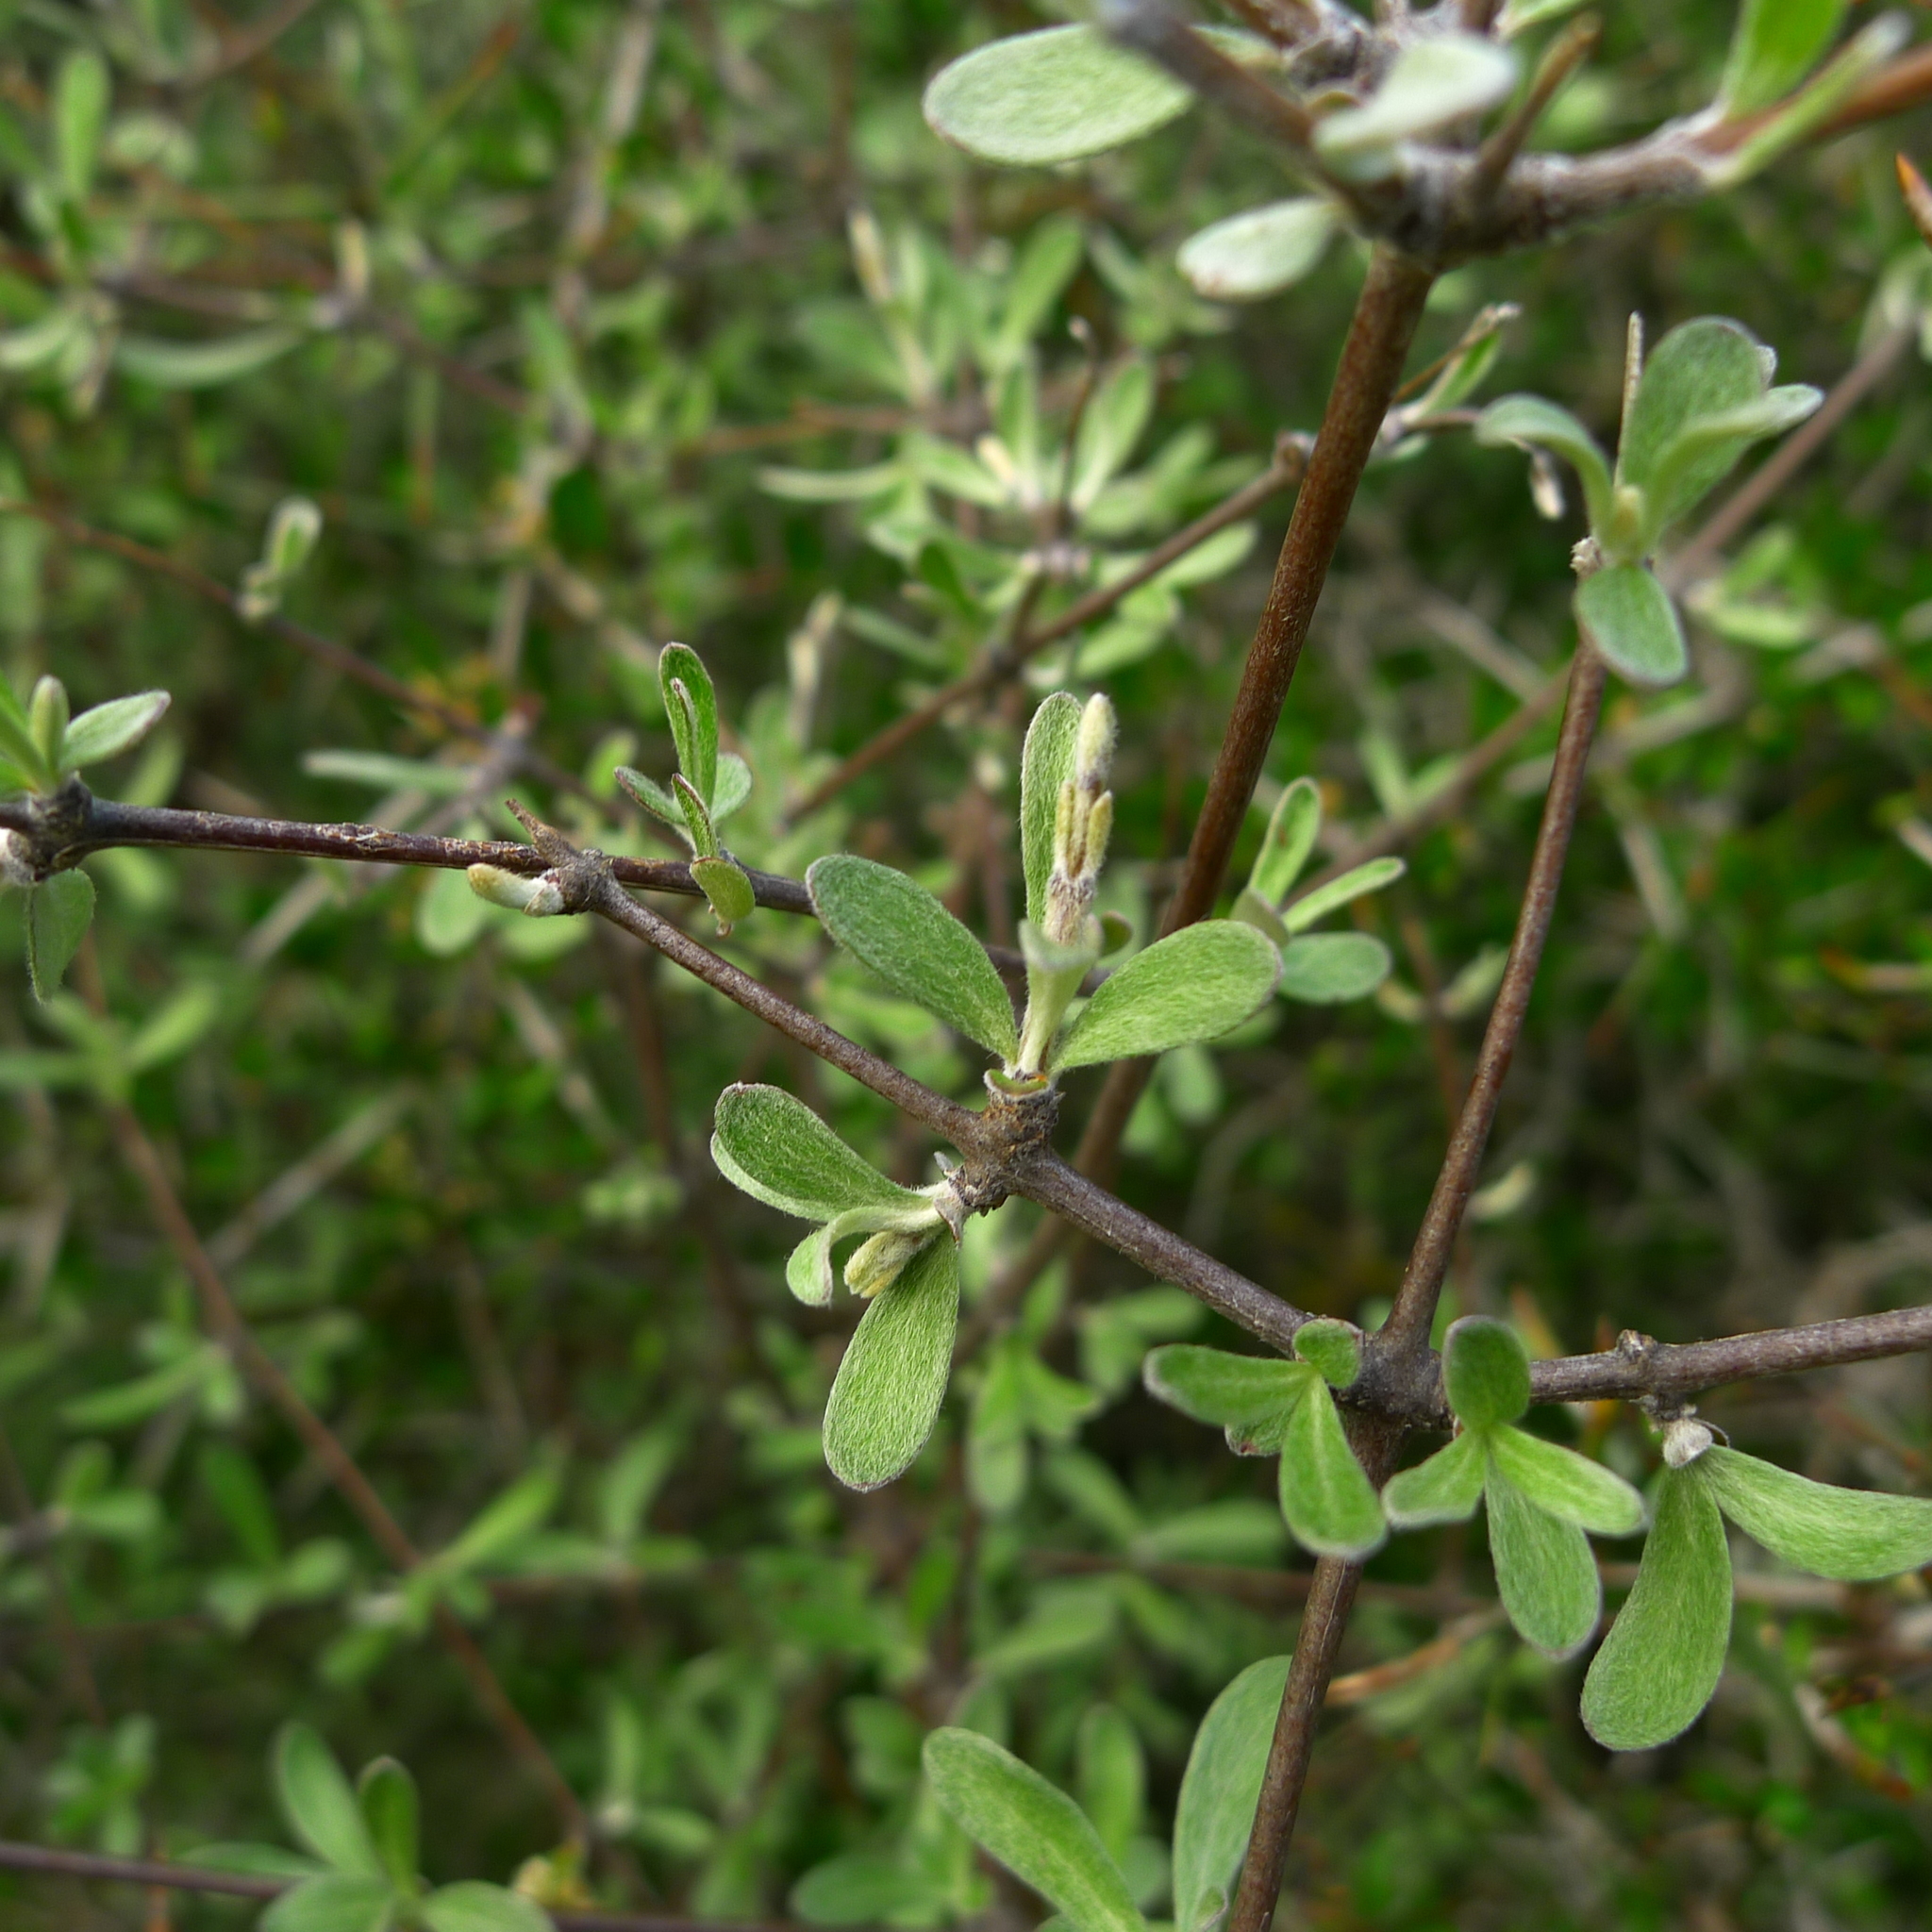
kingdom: Plantae
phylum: Tracheophyta
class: Magnoliopsida
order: Asterales
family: Asteraceae
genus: Olearia
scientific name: Olearia odorata
